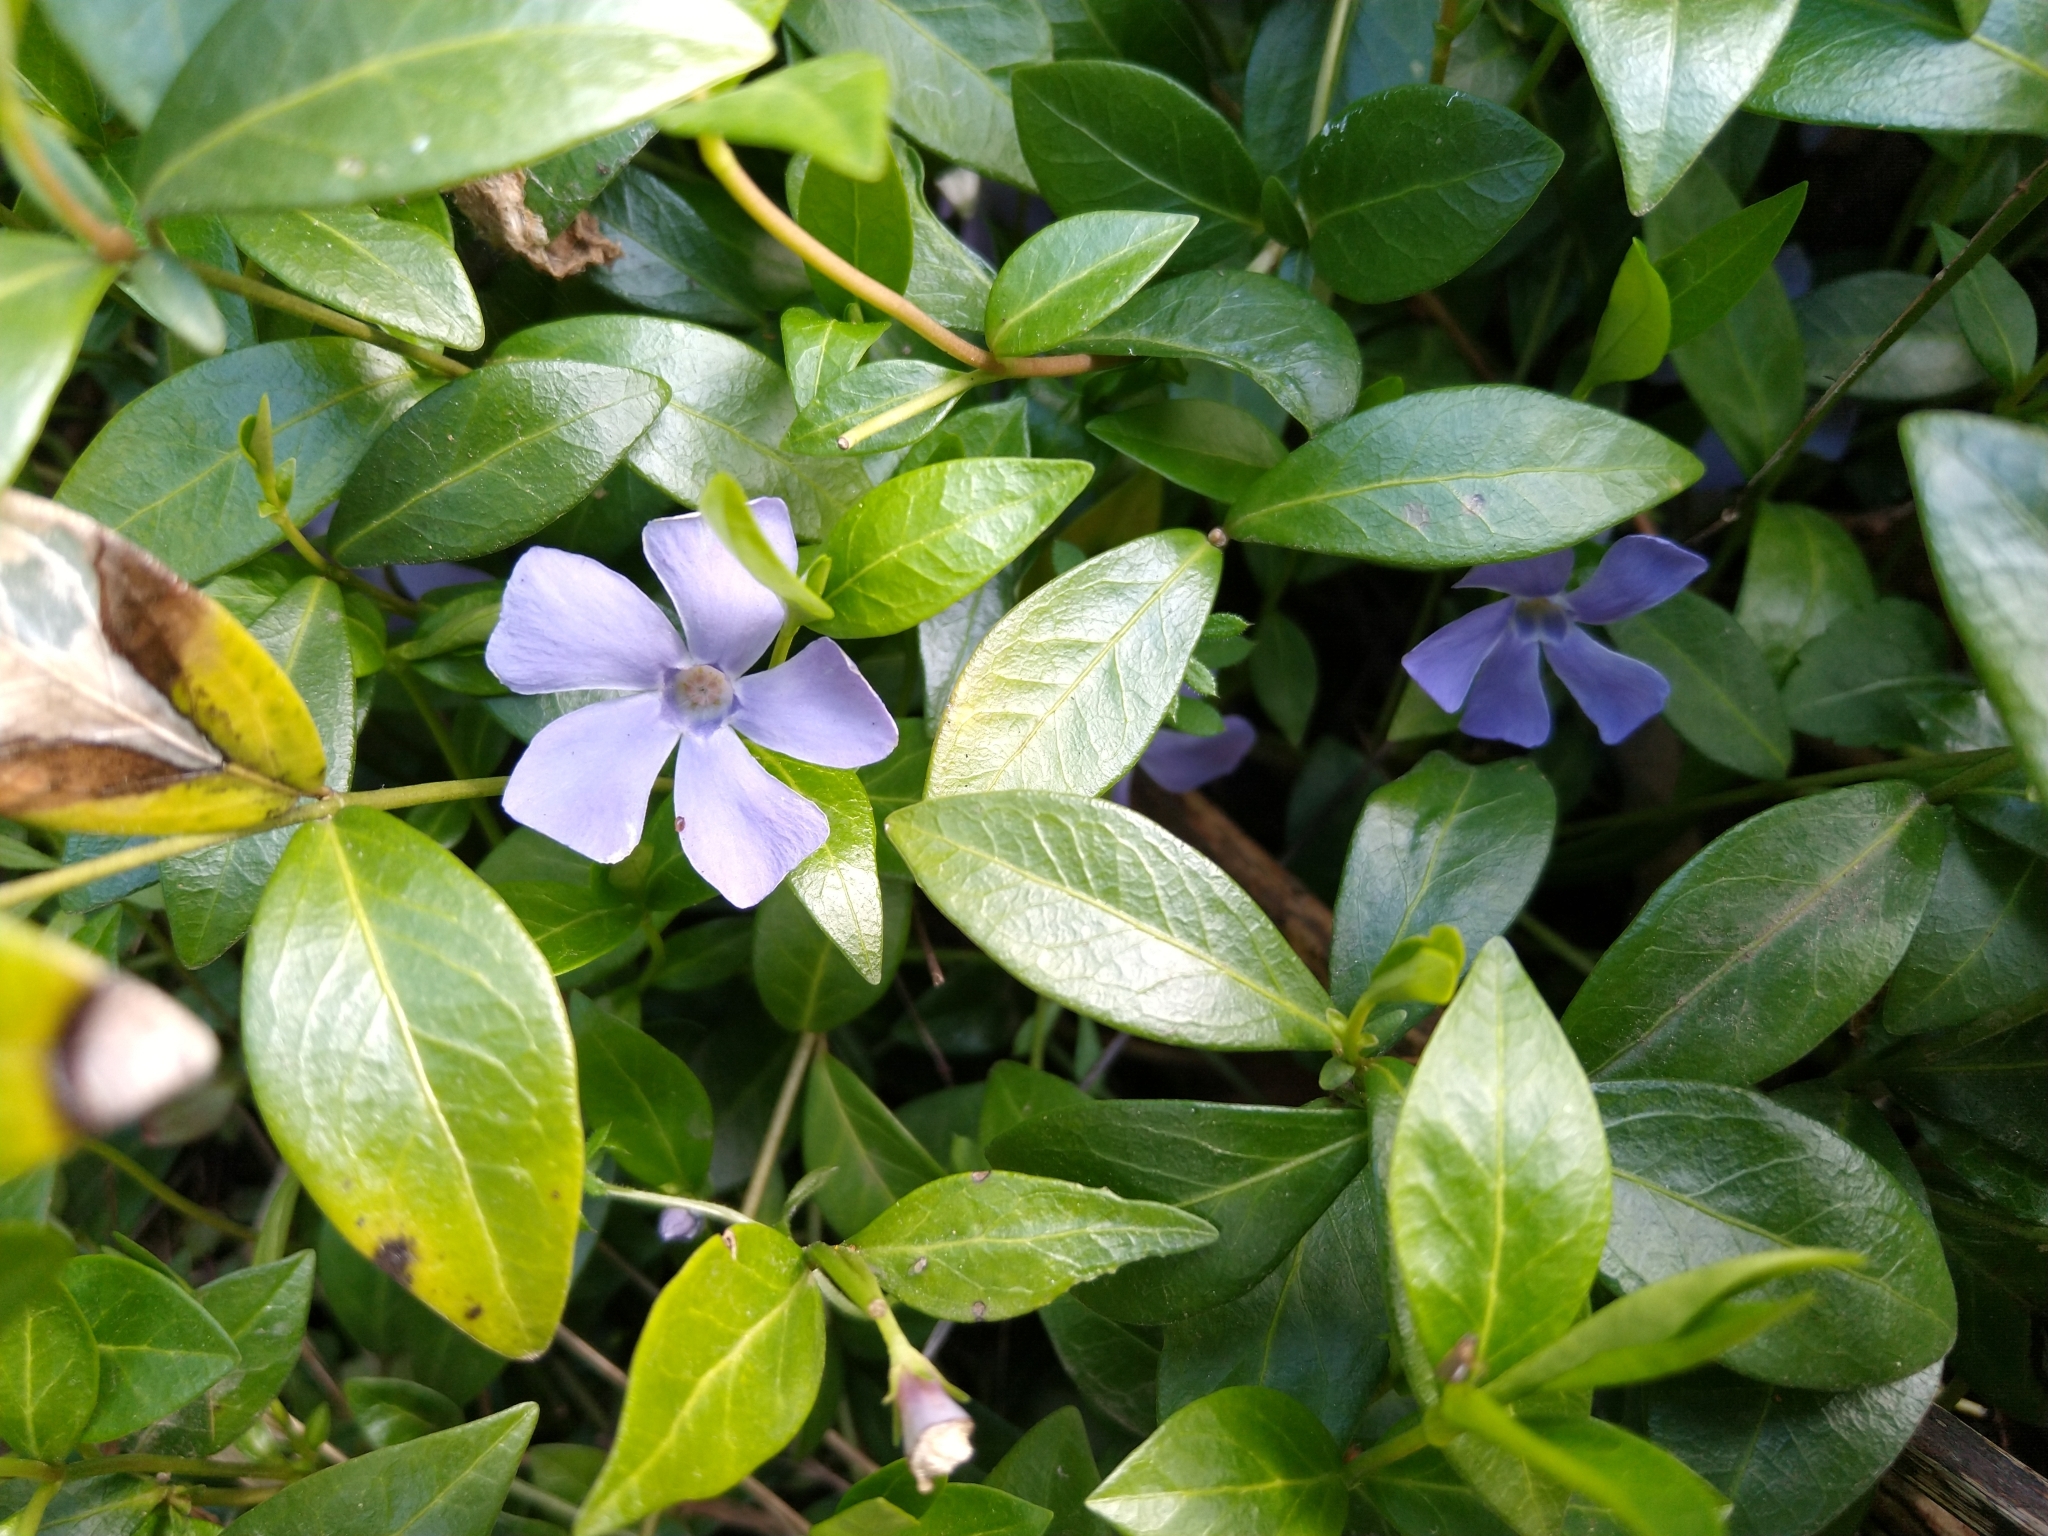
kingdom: Plantae
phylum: Tracheophyta
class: Magnoliopsida
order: Gentianales
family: Apocynaceae
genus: Vinca
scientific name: Vinca minor
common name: Lesser periwinkle
